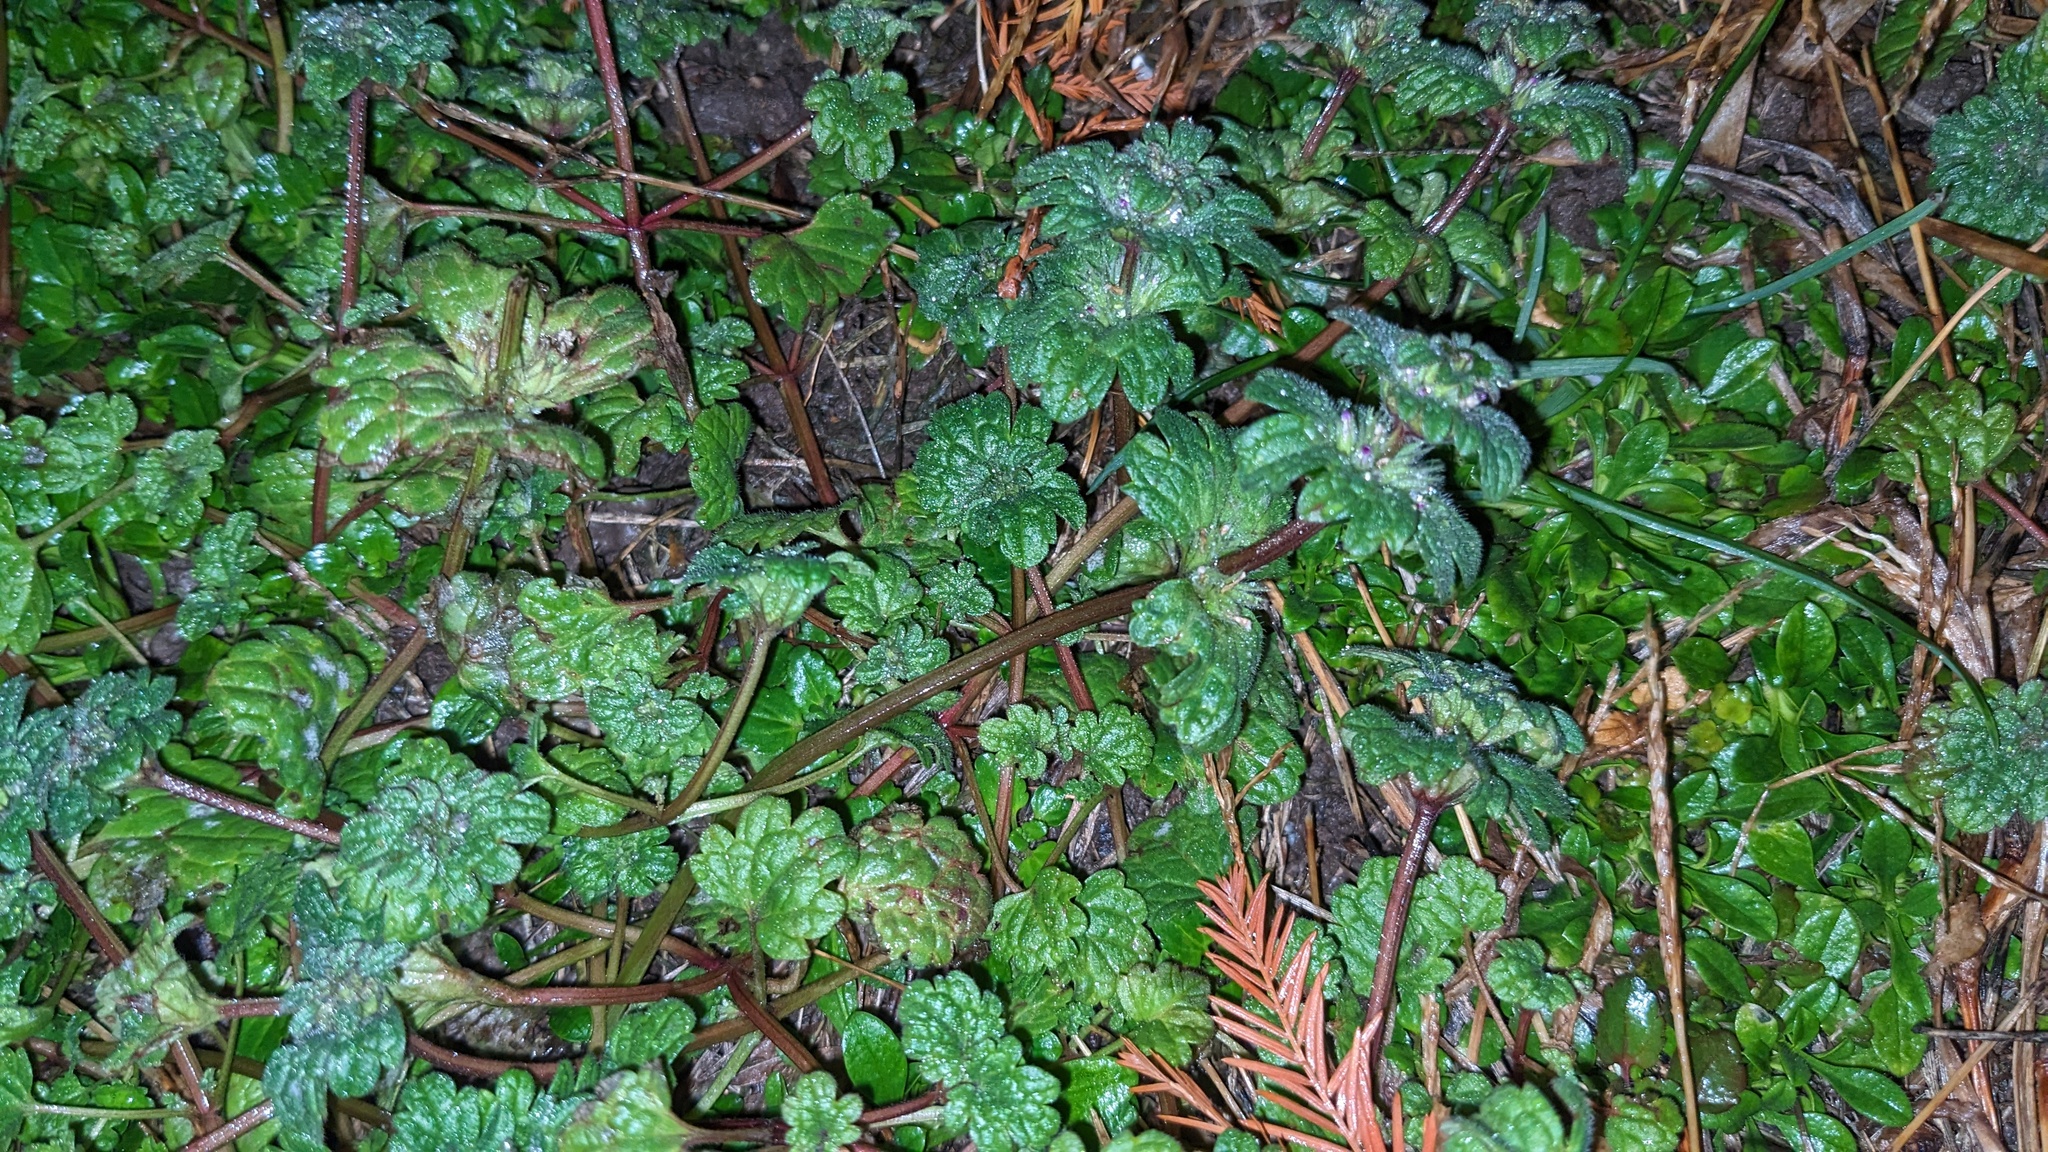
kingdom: Plantae
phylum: Tracheophyta
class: Magnoliopsida
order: Lamiales
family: Lamiaceae
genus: Lamium
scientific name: Lamium amplexicaule
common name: Henbit dead-nettle
